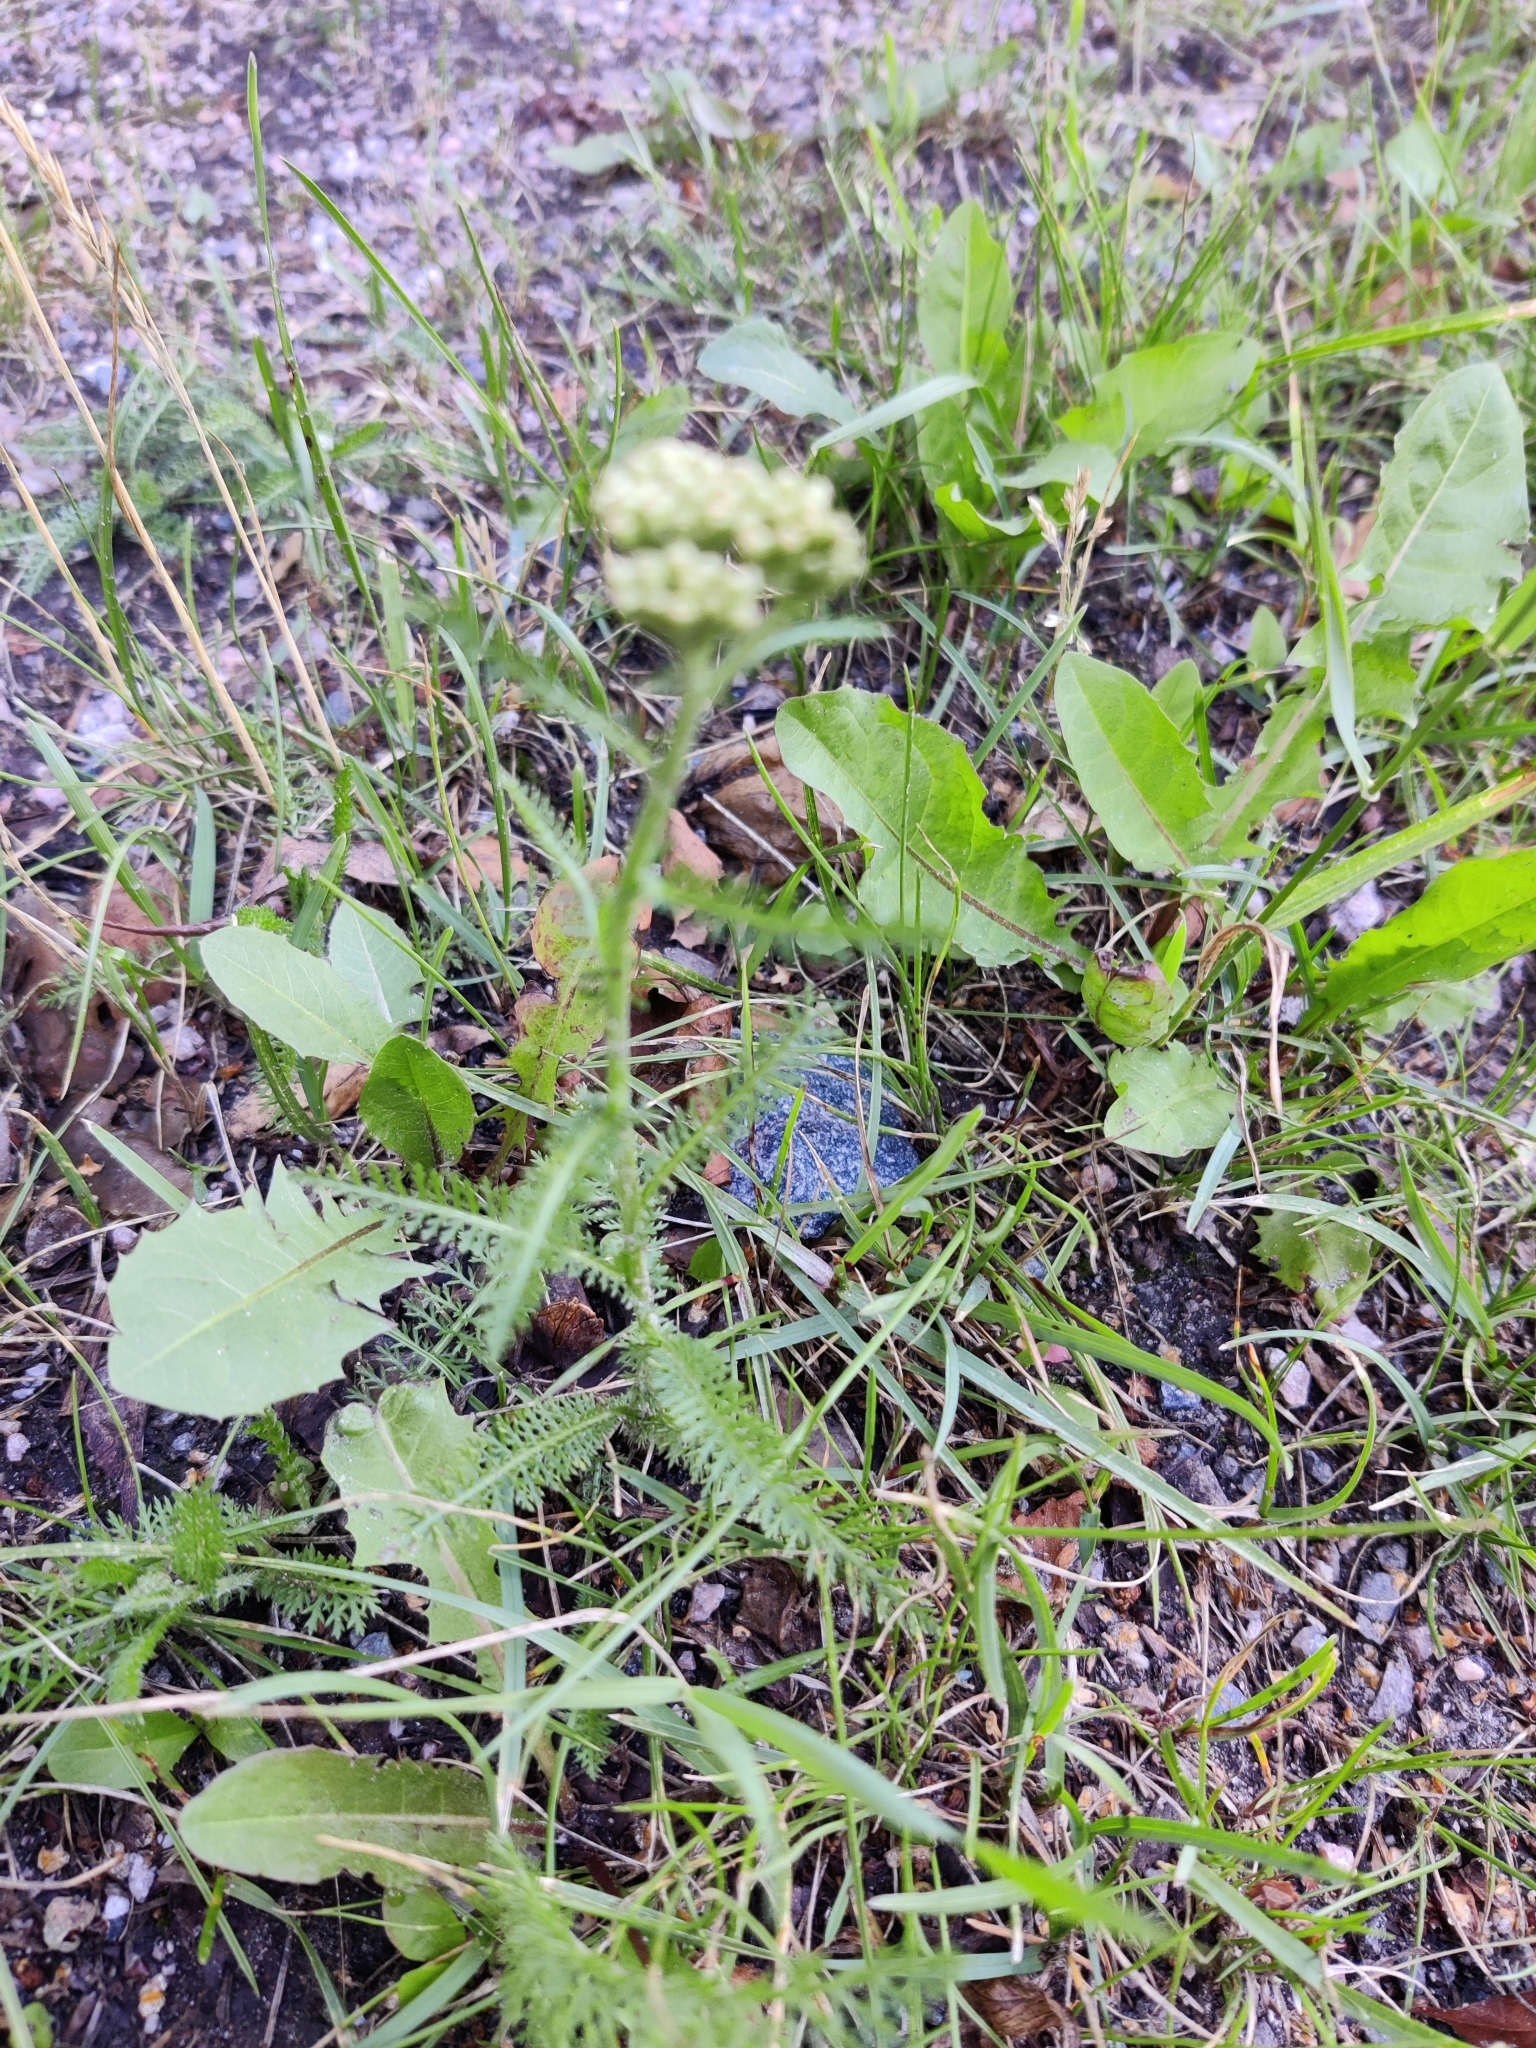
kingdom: Plantae
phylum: Tracheophyta
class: Magnoliopsida
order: Asterales
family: Asteraceae
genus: Achillea
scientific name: Achillea millefolium
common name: Yarrow
